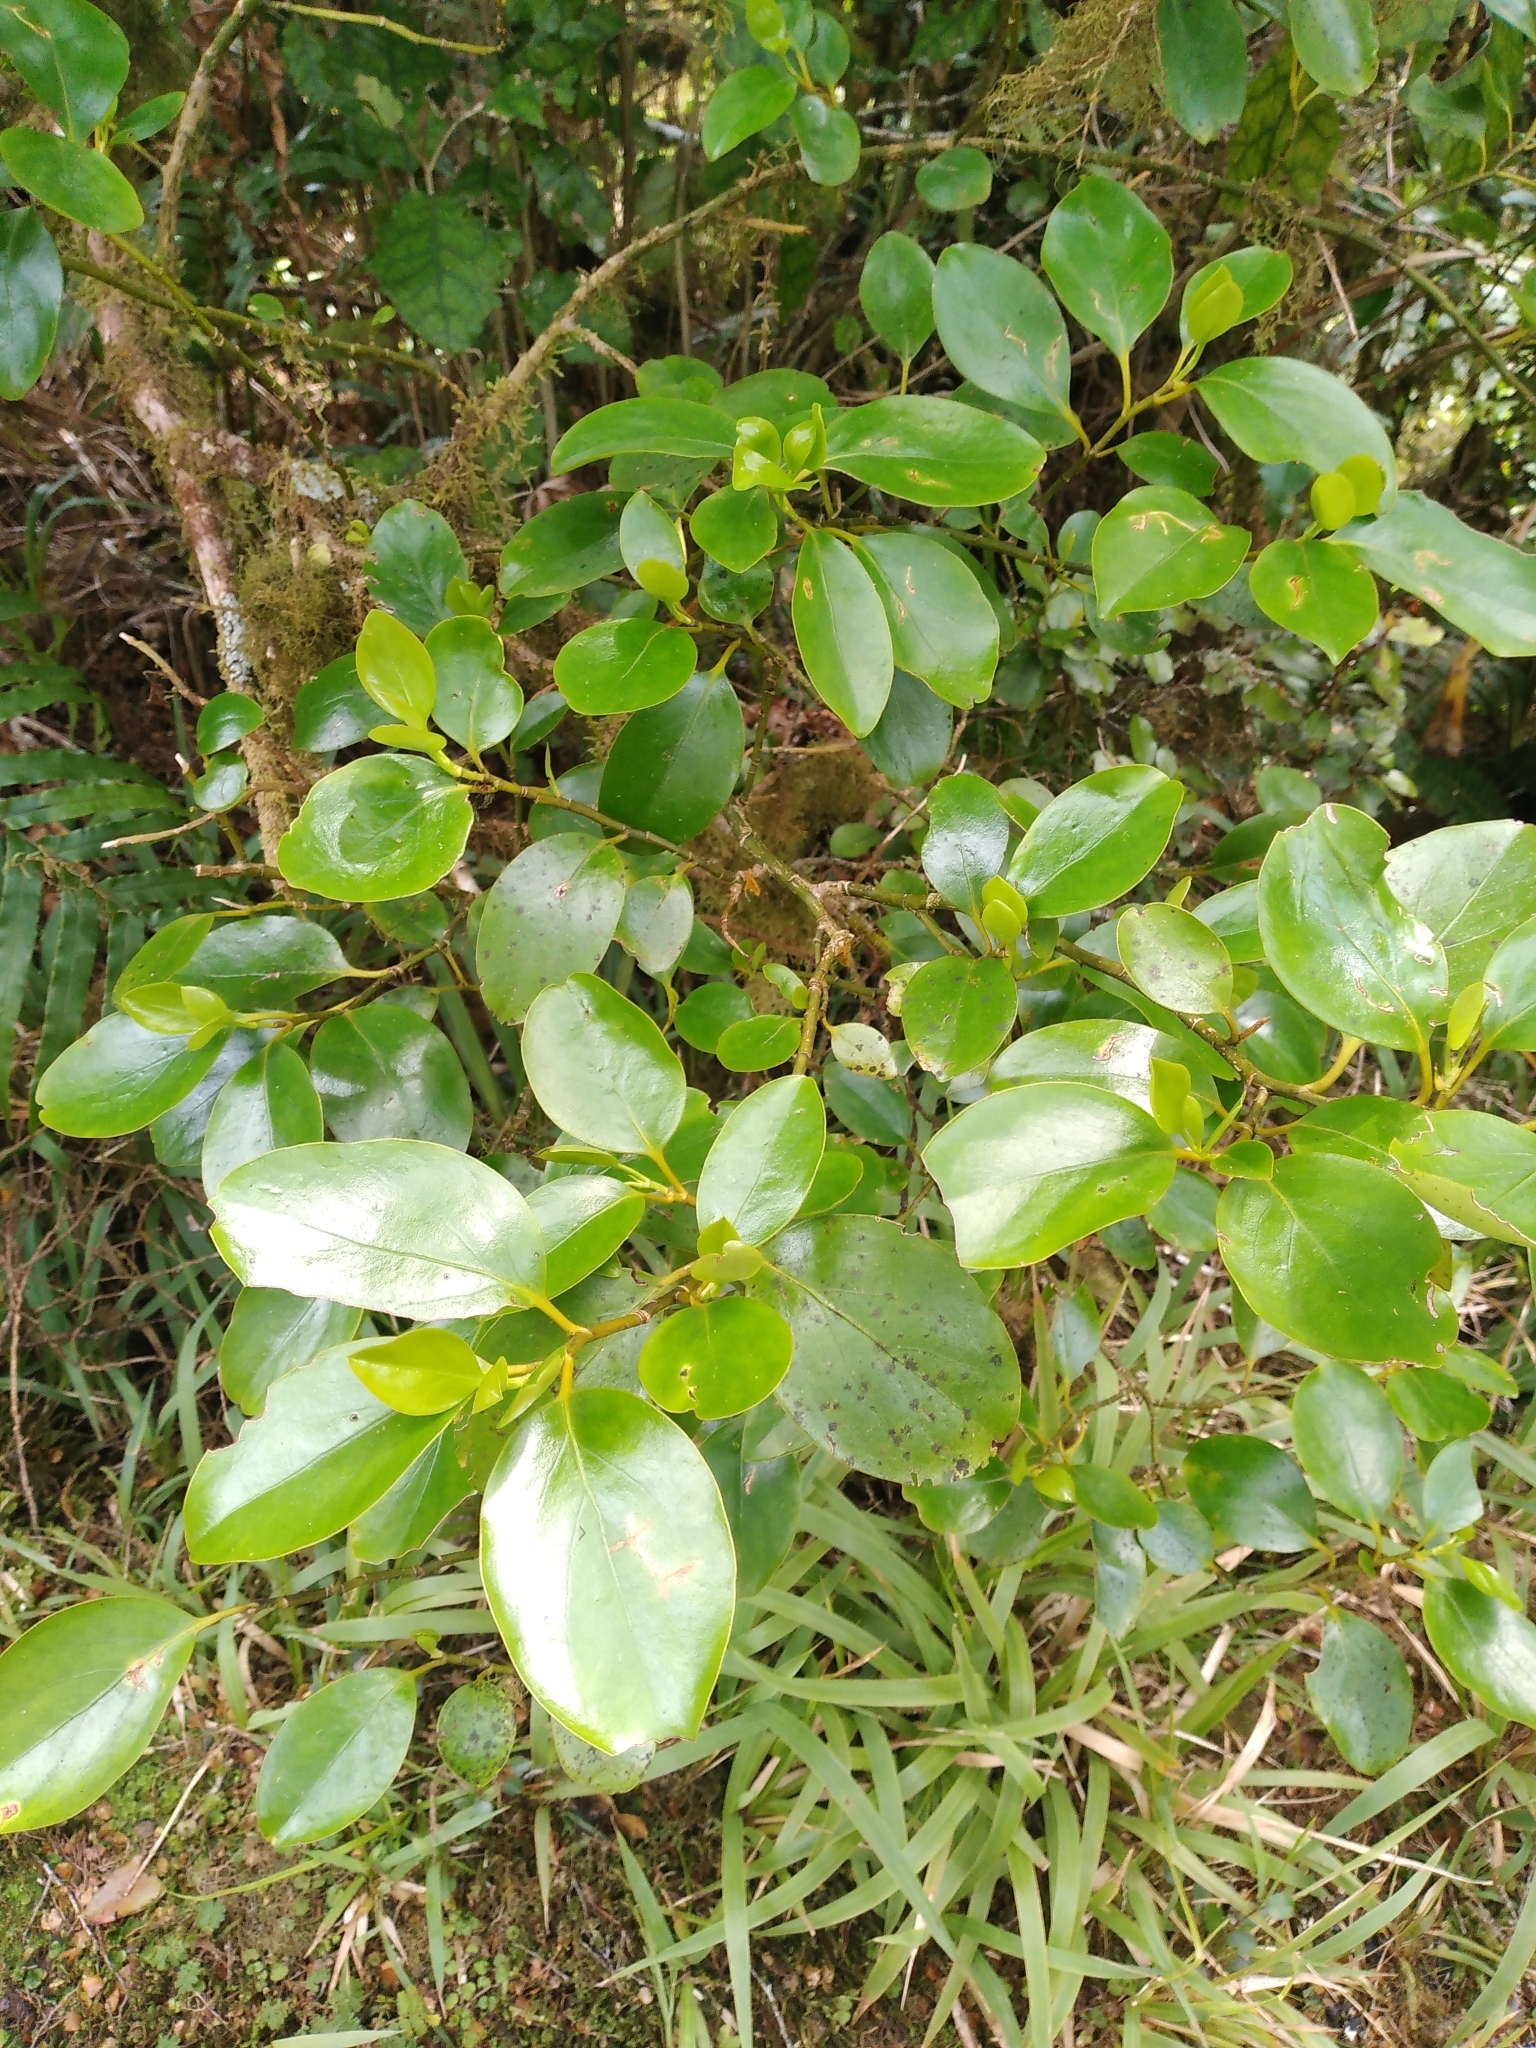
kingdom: Plantae
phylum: Tracheophyta
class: Magnoliopsida
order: Apiales
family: Griseliniaceae
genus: Griselinia
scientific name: Griselinia littoralis
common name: New zealand broadleaf
